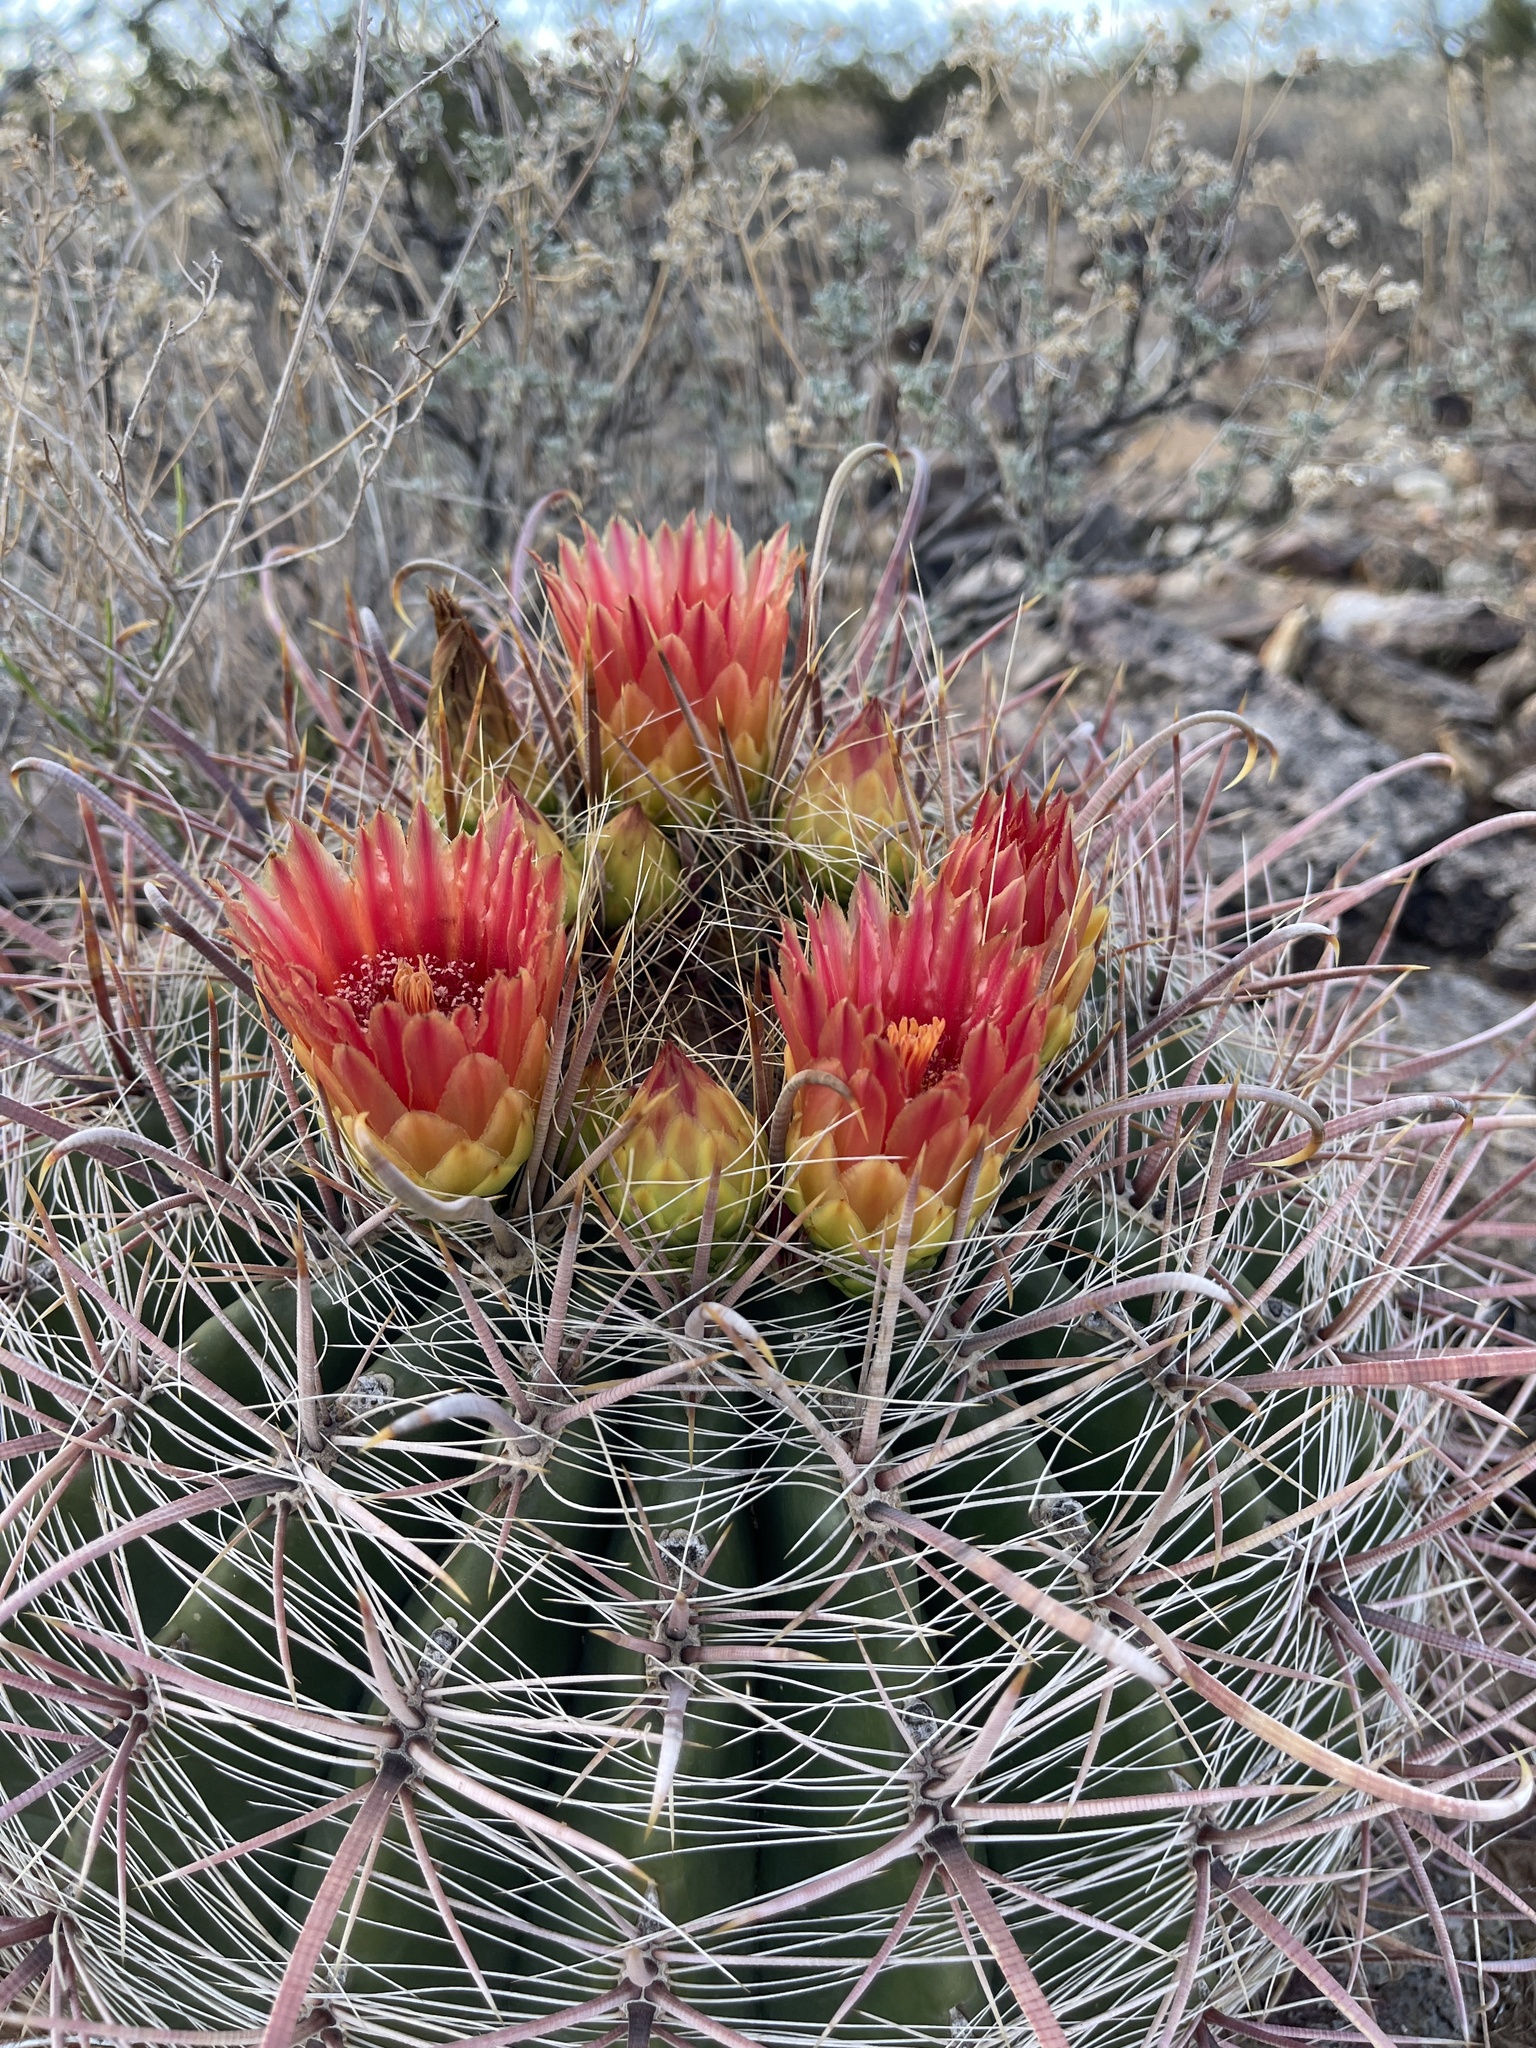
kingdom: Plantae
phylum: Tracheophyta
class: Magnoliopsida
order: Caryophyllales
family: Cactaceae
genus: Ferocactus
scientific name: Ferocactus wislizeni
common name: Candy barrel cactus
